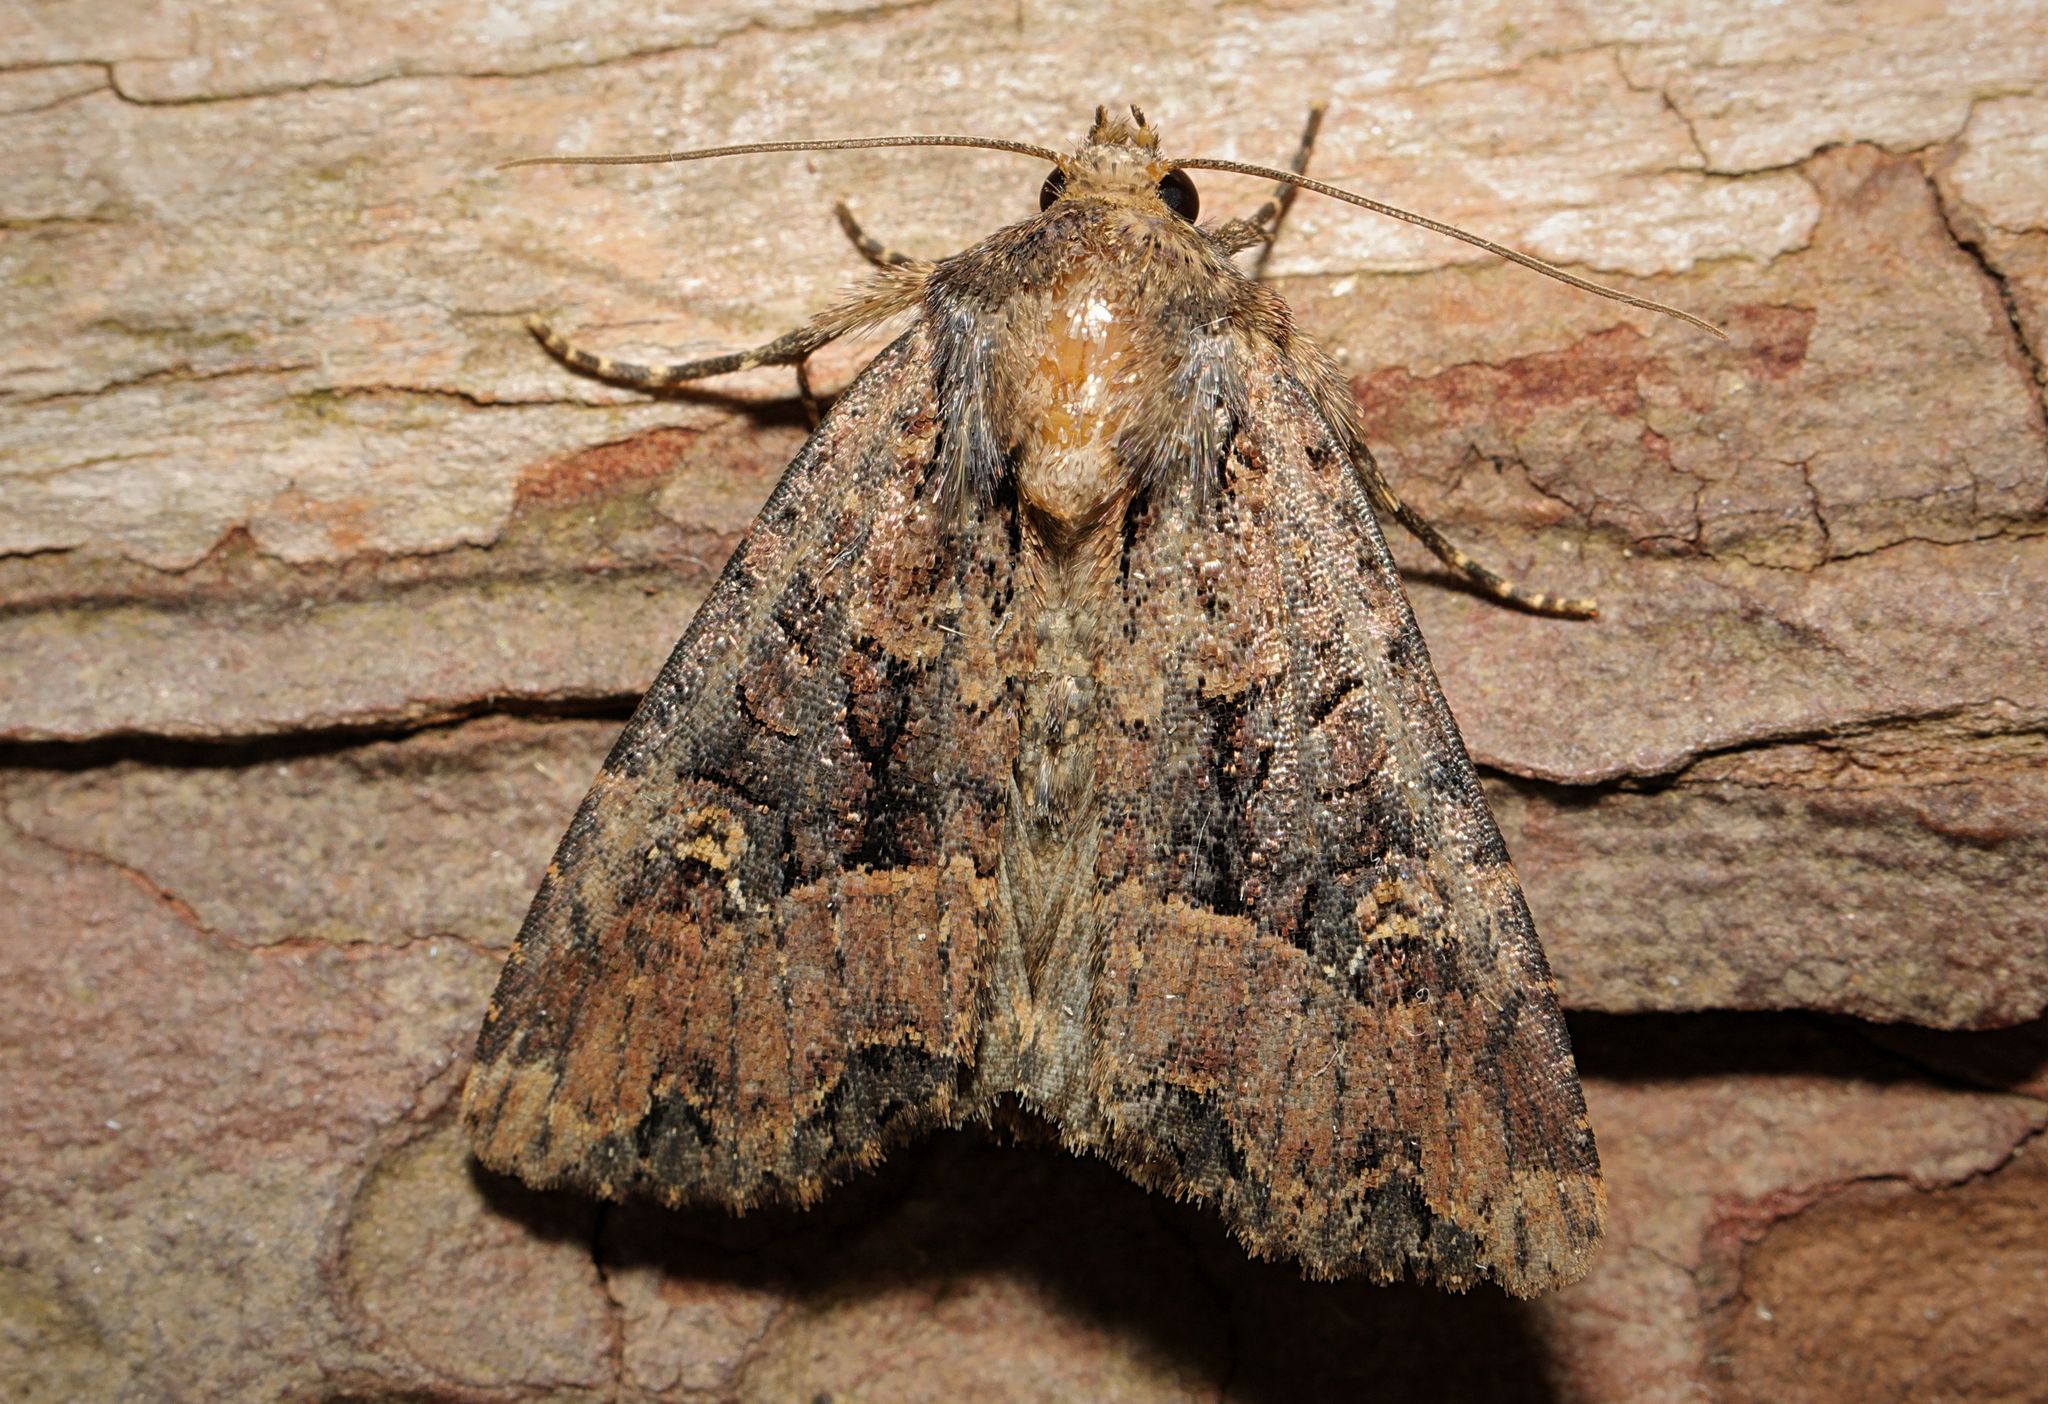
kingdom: Animalia
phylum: Arthropoda
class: Insecta
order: Lepidoptera
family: Noctuidae
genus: Mesapamea
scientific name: Mesapamea
